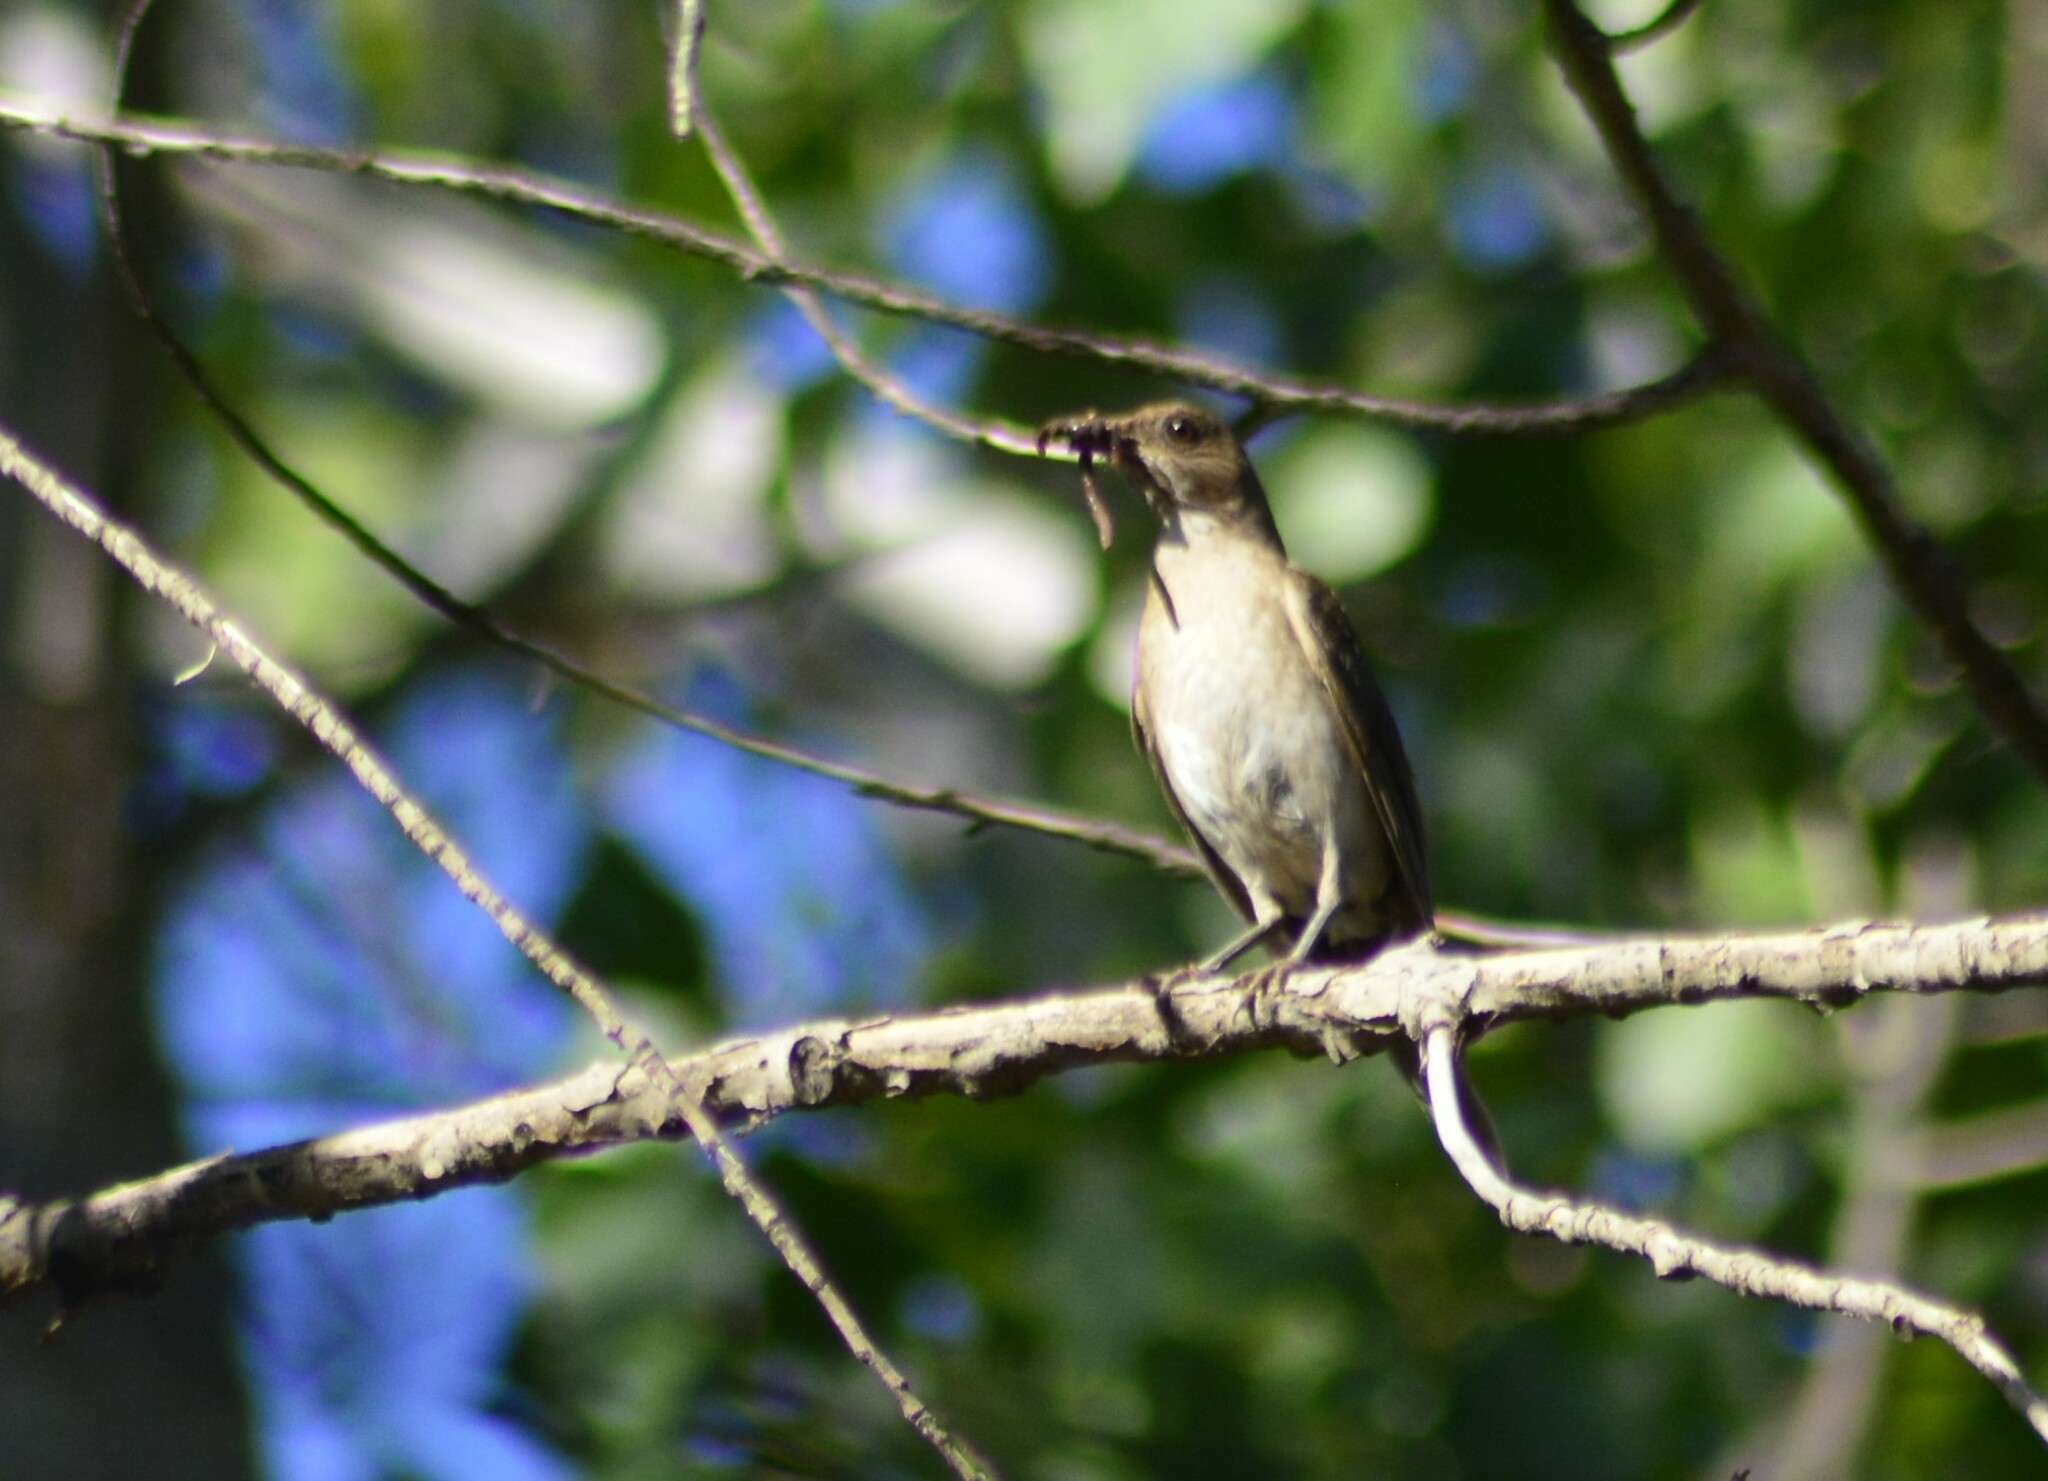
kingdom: Animalia
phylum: Chordata
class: Aves
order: Passeriformes
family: Turdidae
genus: Turdus
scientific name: Turdus amaurochalinus
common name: Creamy-bellied thrush
